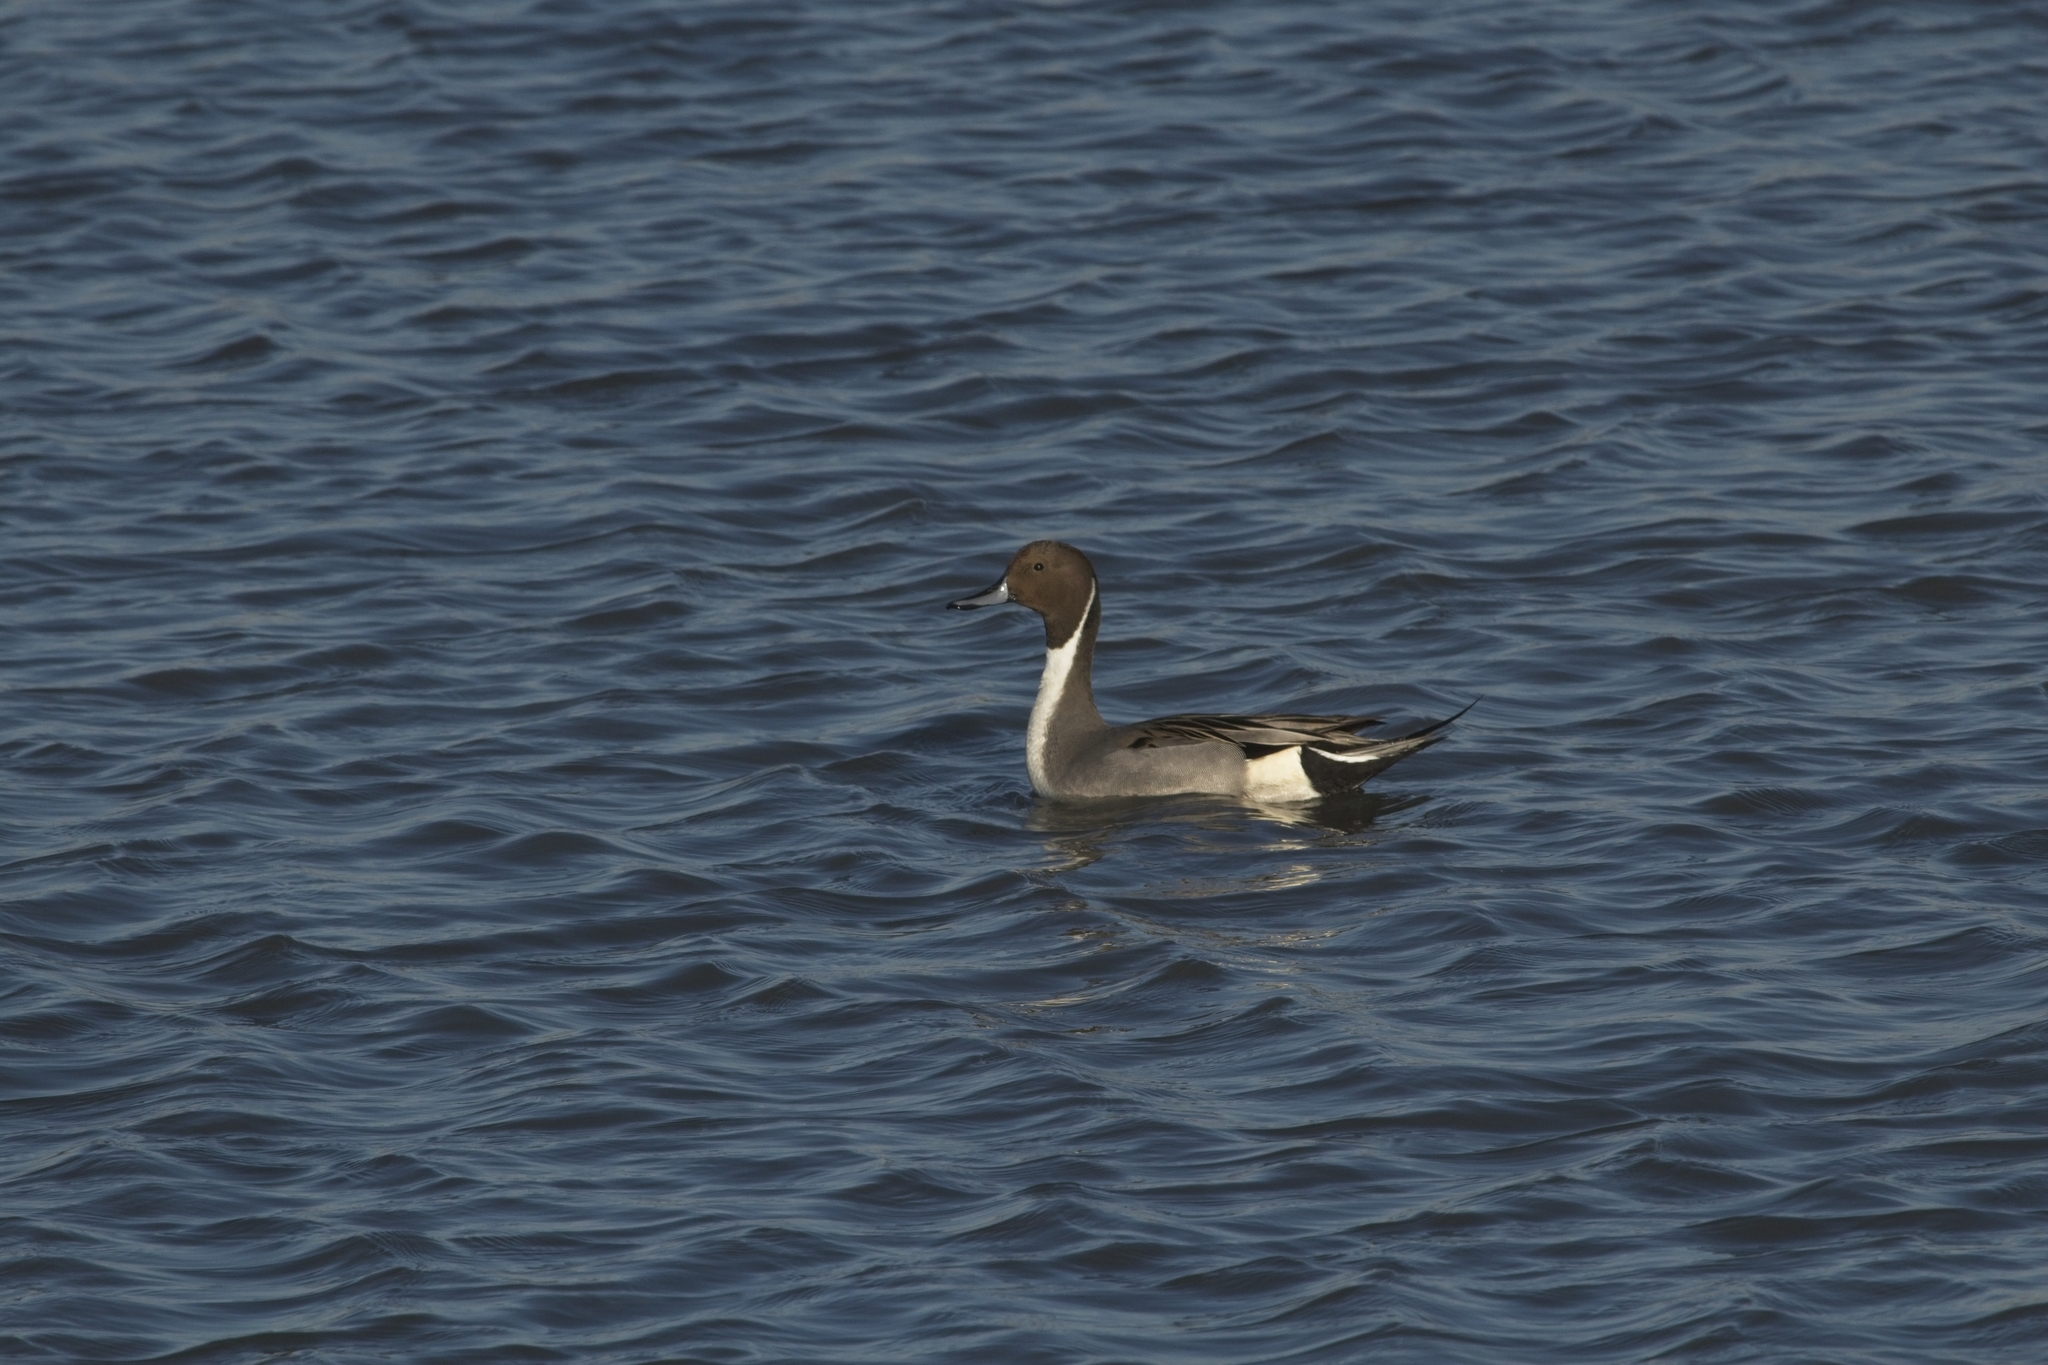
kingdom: Animalia
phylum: Chordata
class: Aves
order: Anseriformes
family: Anatidae
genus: Anas
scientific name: Anas acuta
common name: Northern pintail
